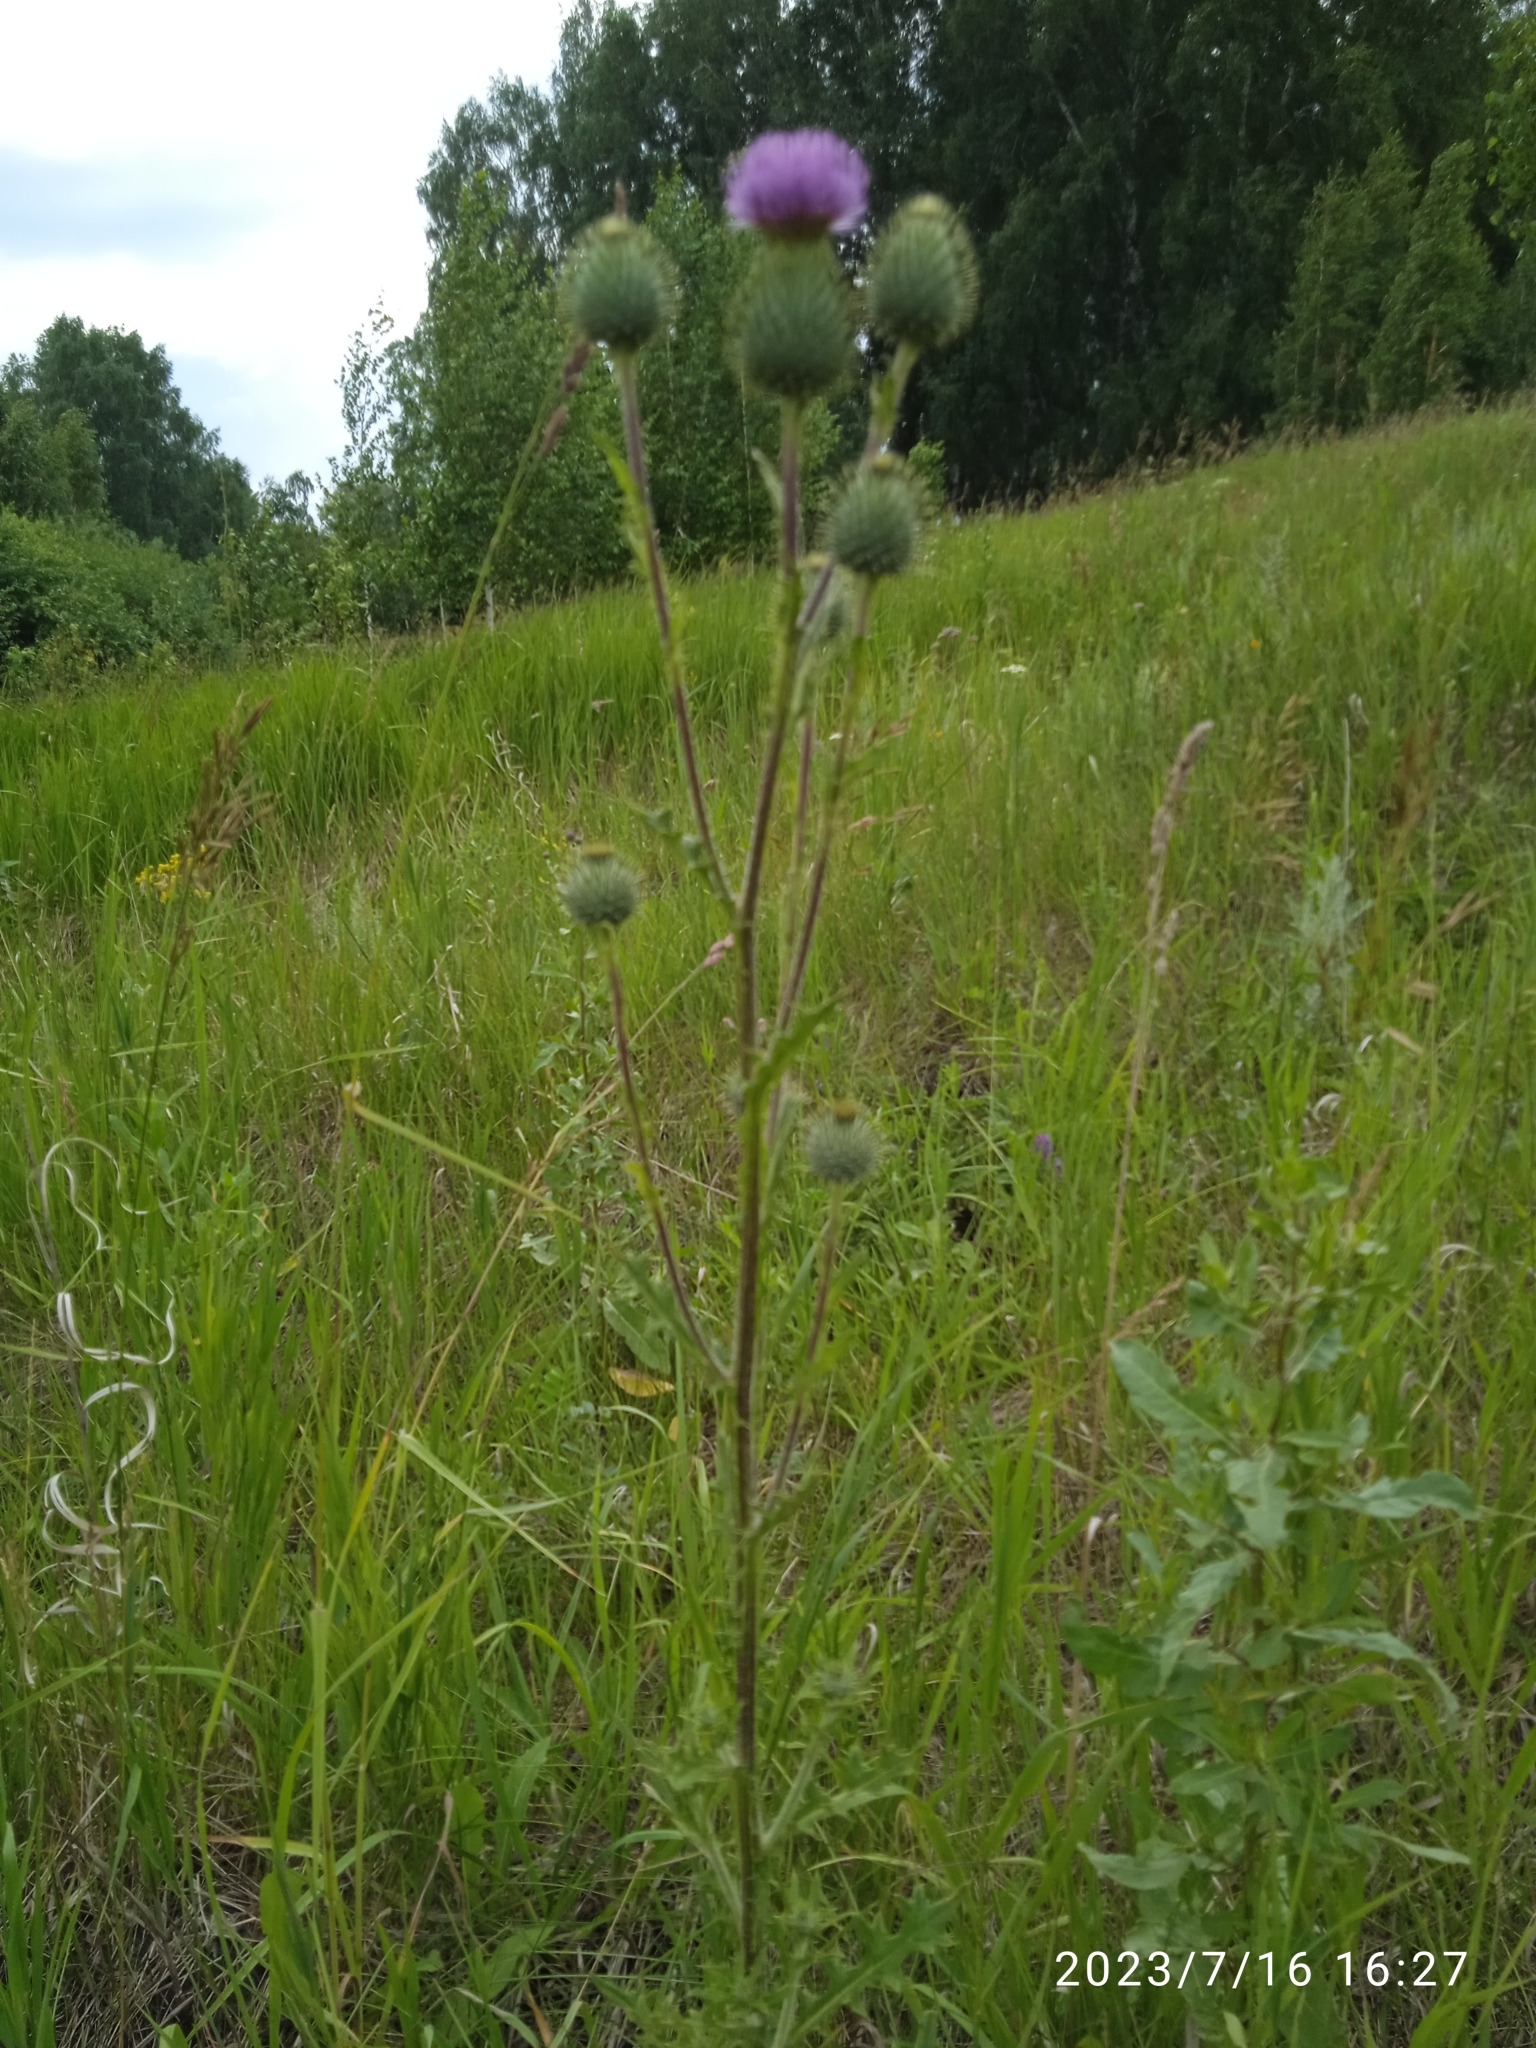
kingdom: Plantae
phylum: Tracheophyta
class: Magnoliopsida
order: Asterales
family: Asteraceae
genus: Cirsium
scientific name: Cirsium vulgare
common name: Bull thistle
